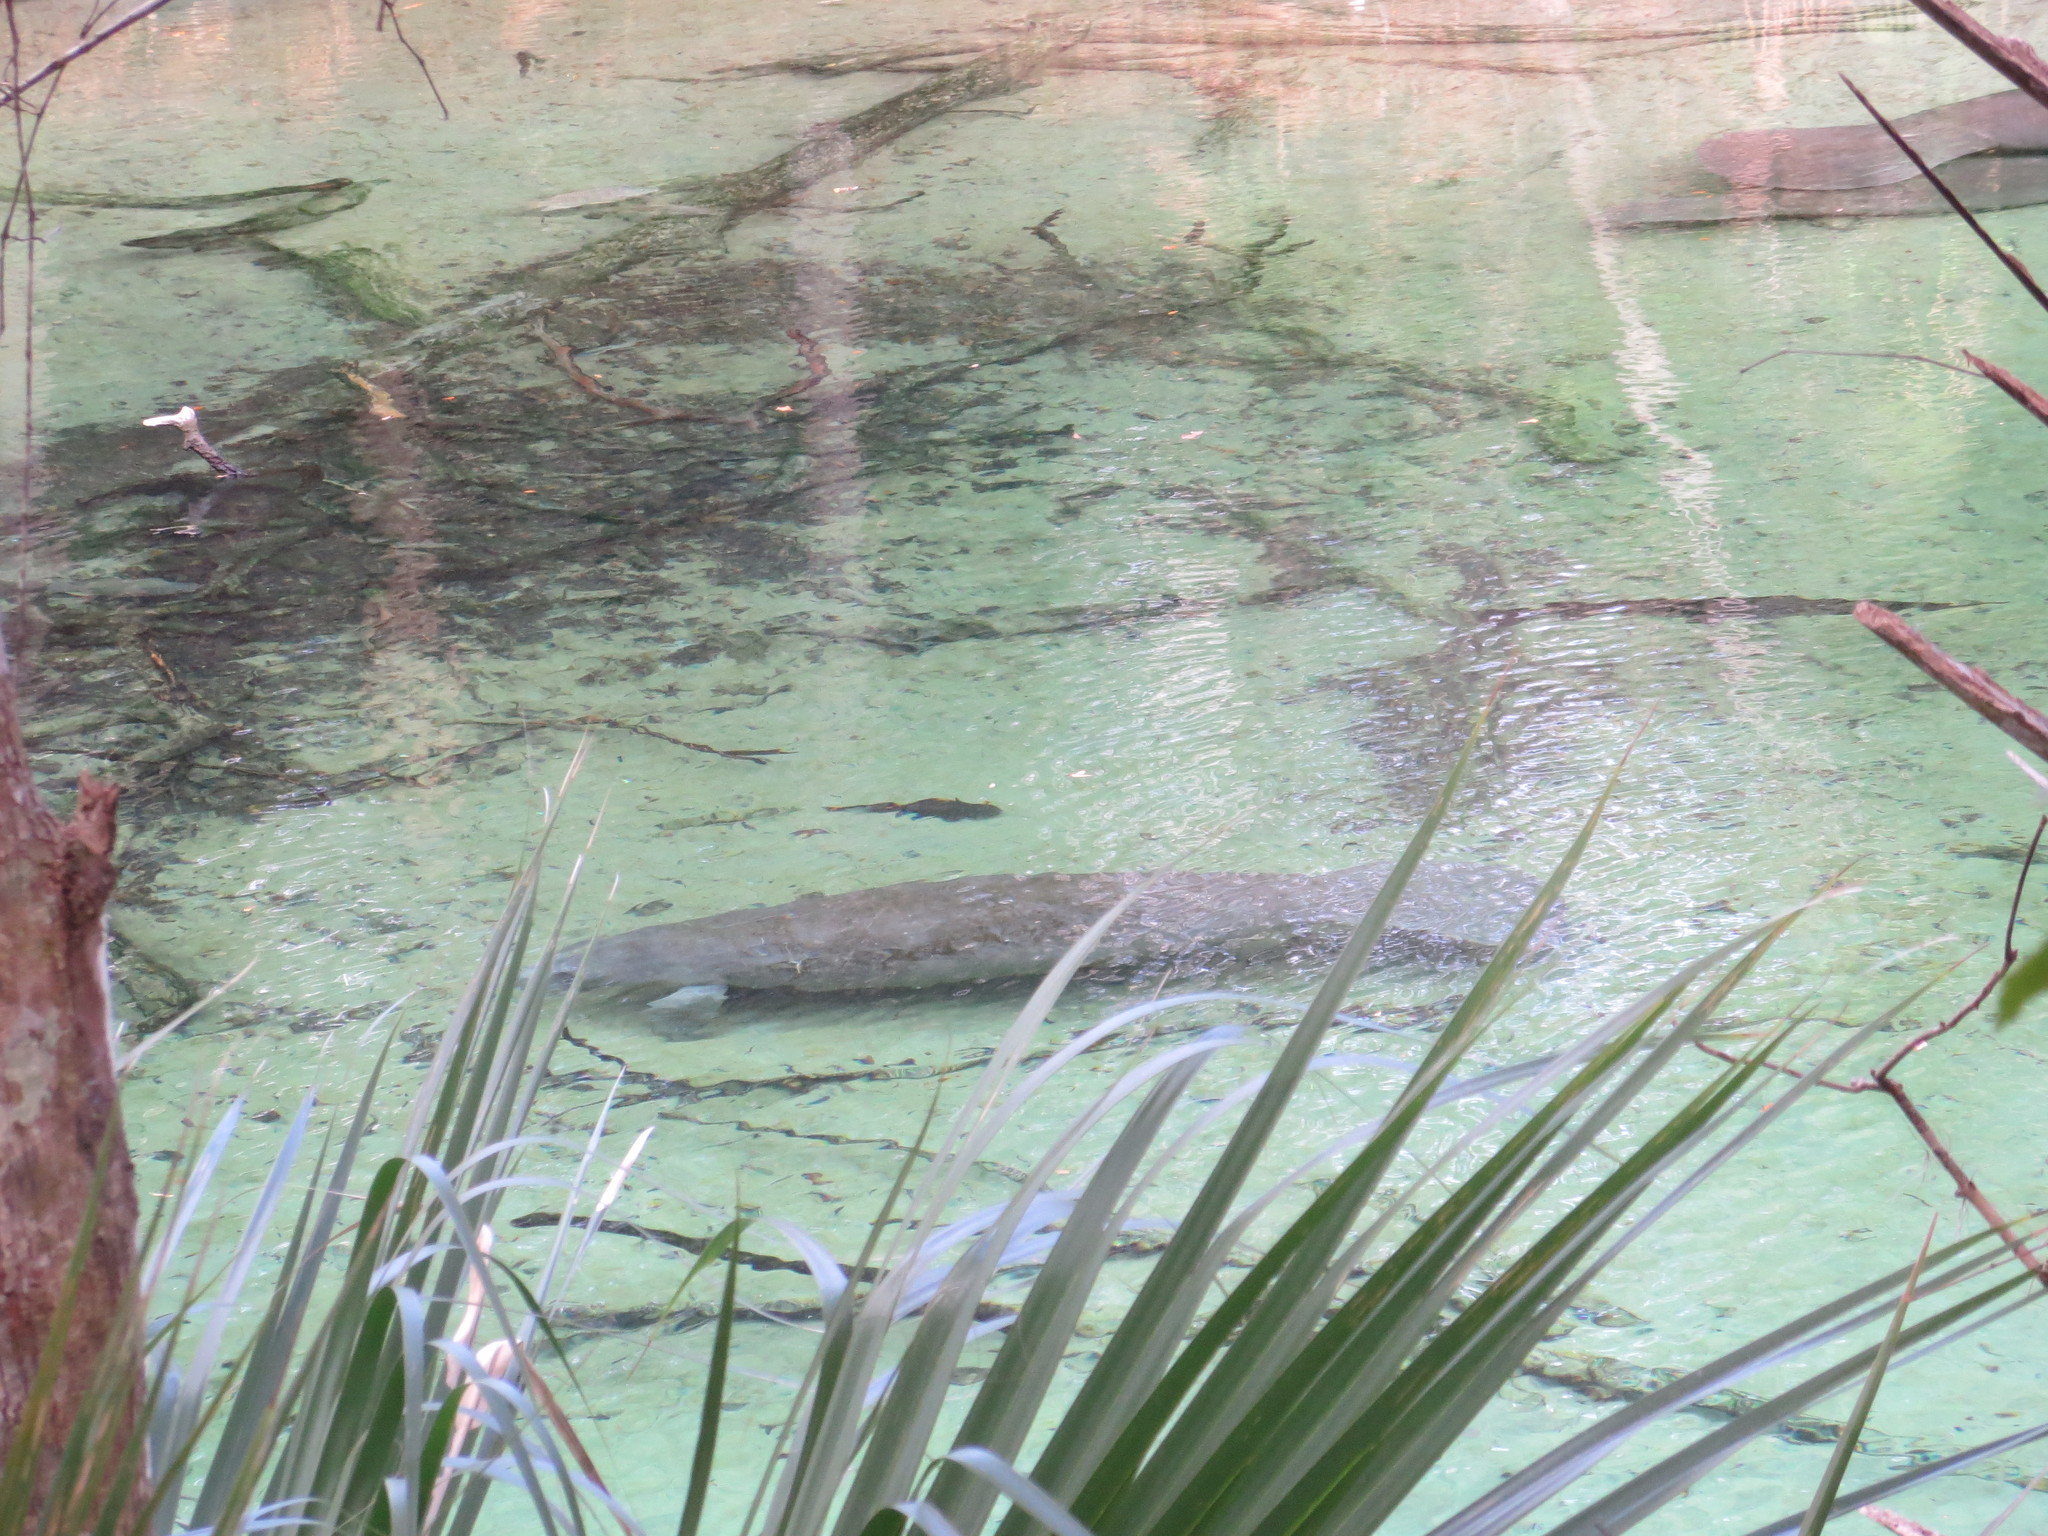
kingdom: Animalia
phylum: Chordata
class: Mammalia
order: Sirenia
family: Trichechidae
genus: Trichechus
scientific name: Trichechus manatus
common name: West indian manatee
